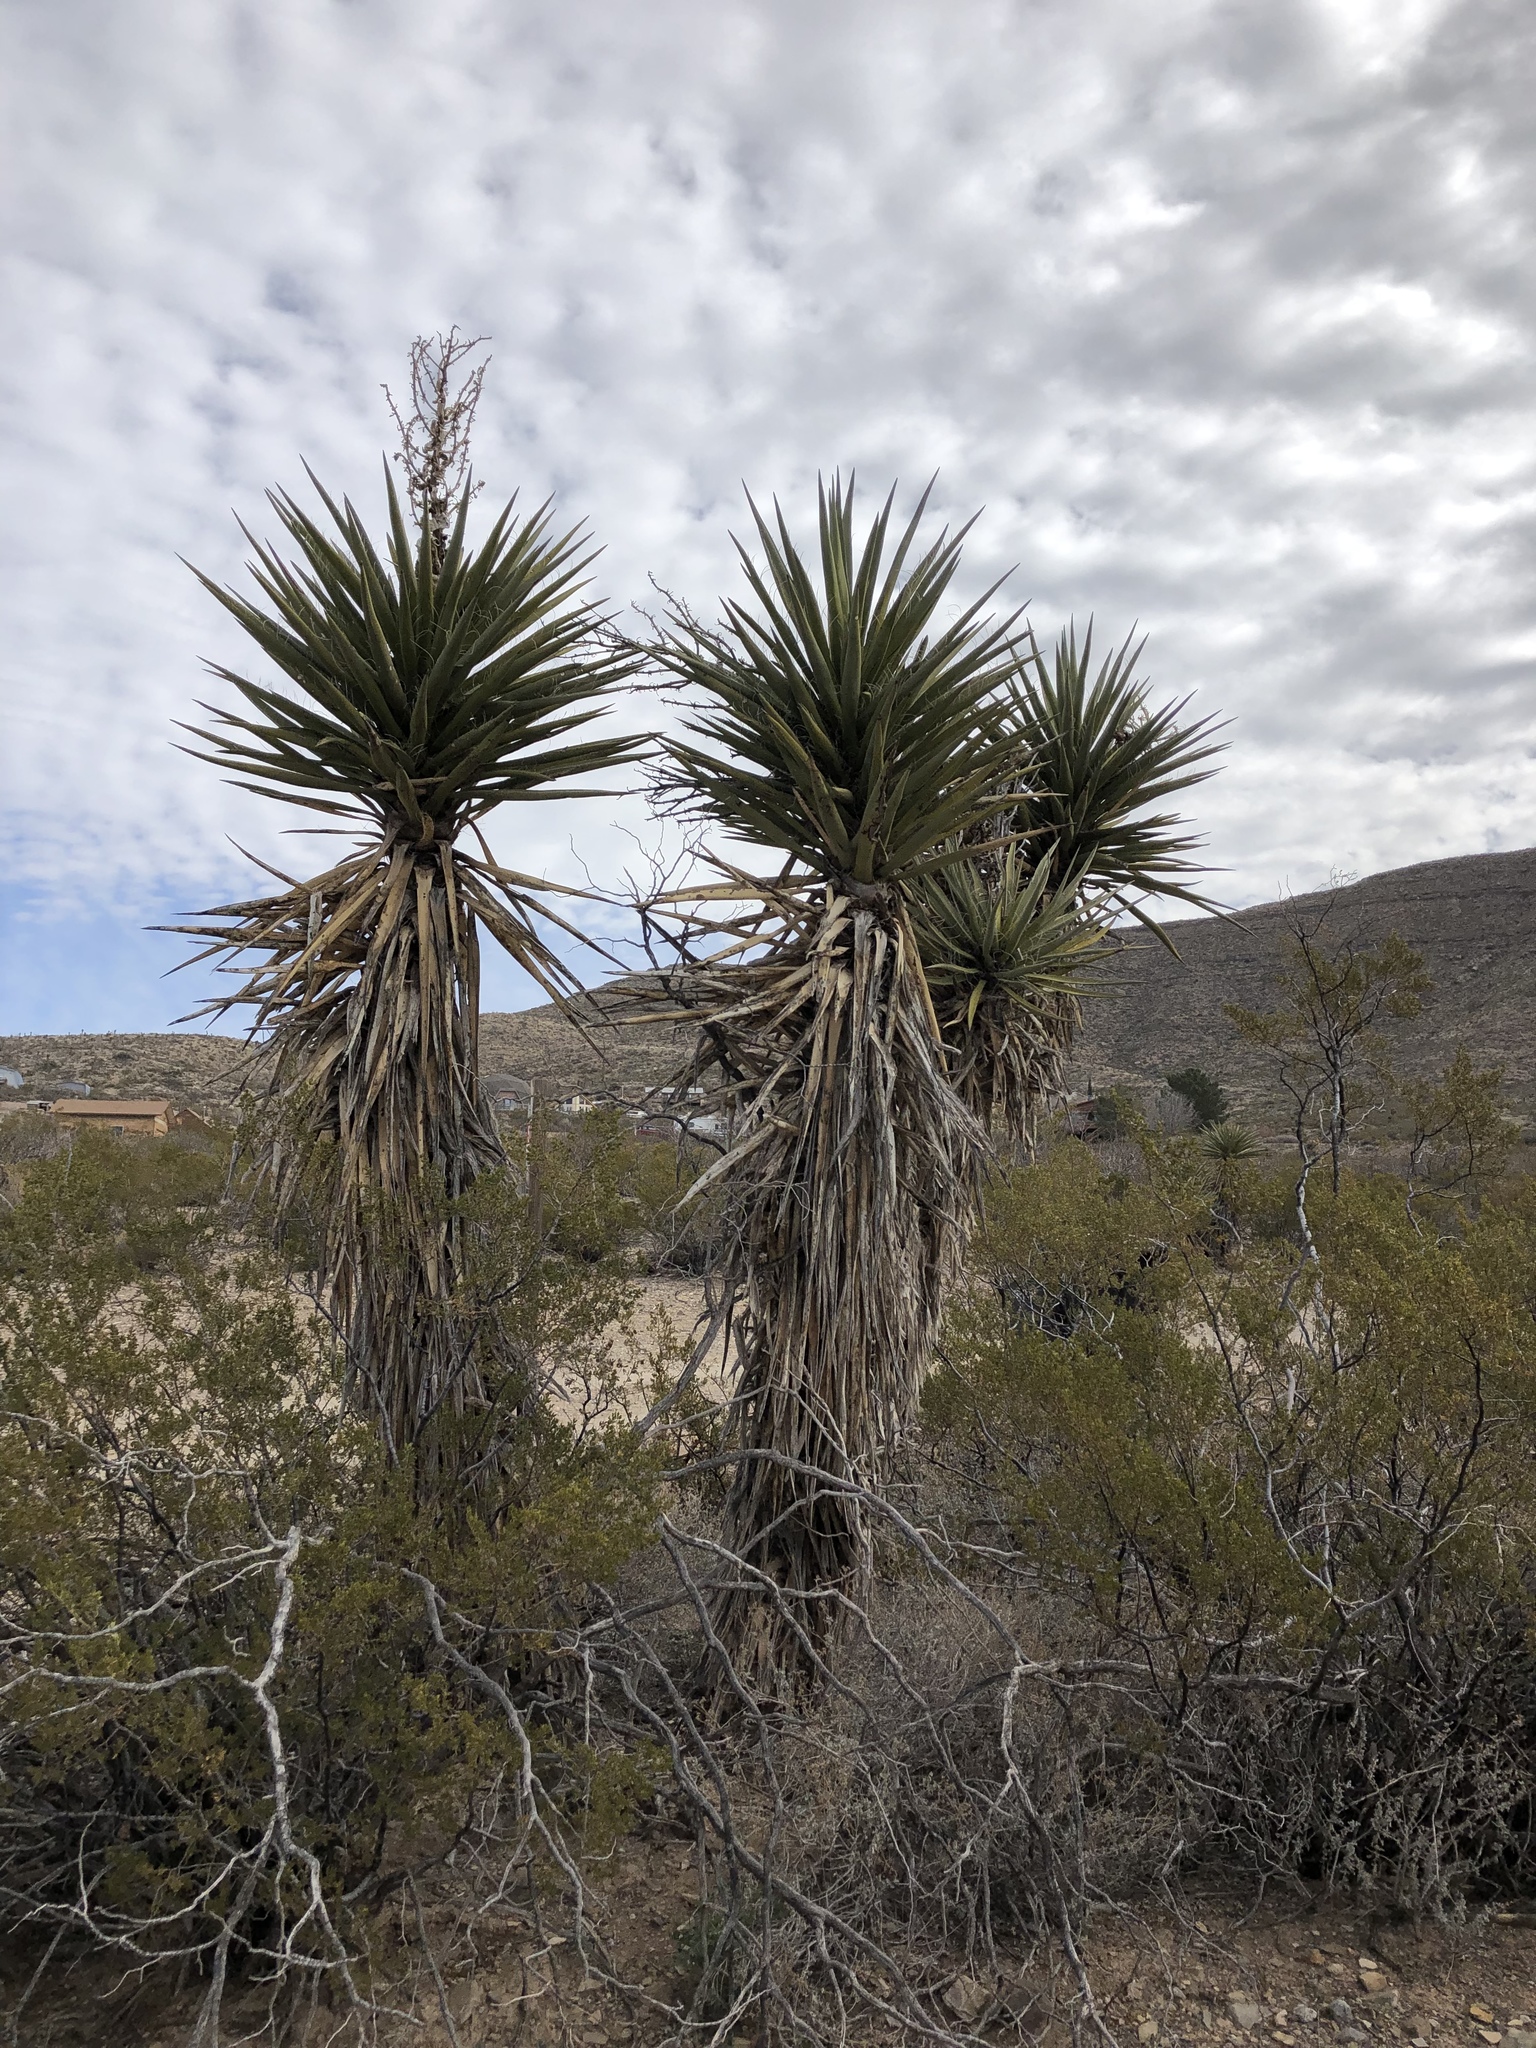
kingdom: Plantae
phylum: Tracheophyta
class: Liliopsida
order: Asparagales
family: Asparagaceae
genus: Yucca
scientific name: Yucca treculiana
